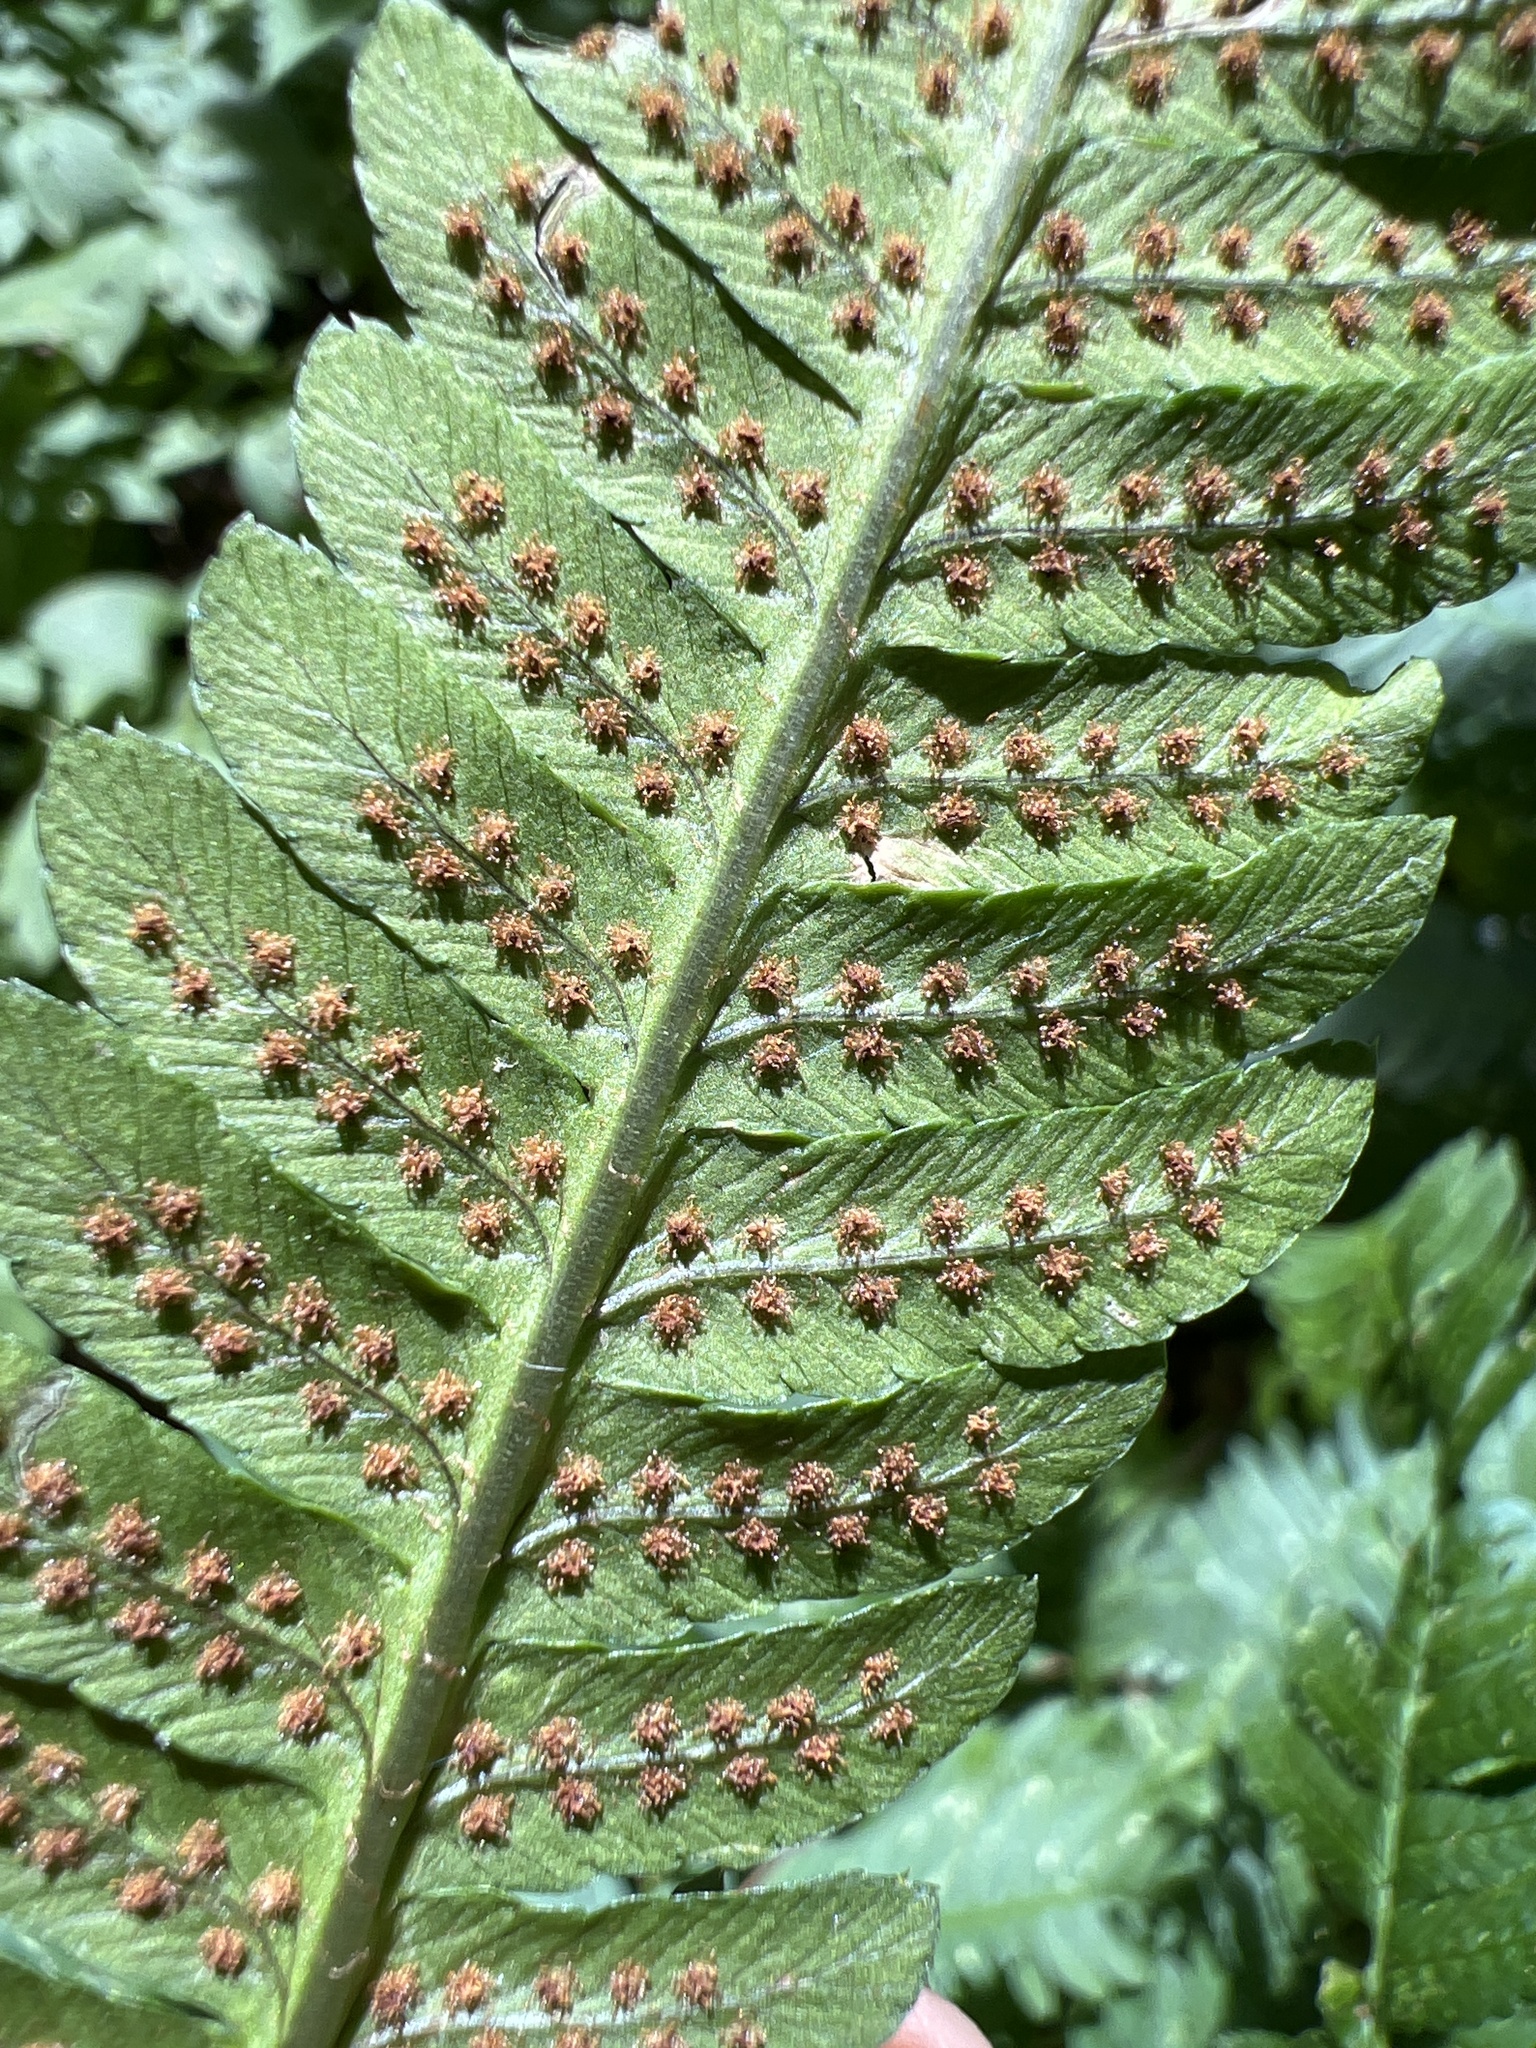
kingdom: Plantae
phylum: Tracheophyta
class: Polypodiopsida
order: Polypodiales
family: Dryopteridaceae
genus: Dryopteris
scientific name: Dryopteris goldieana
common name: Goldie's fern
